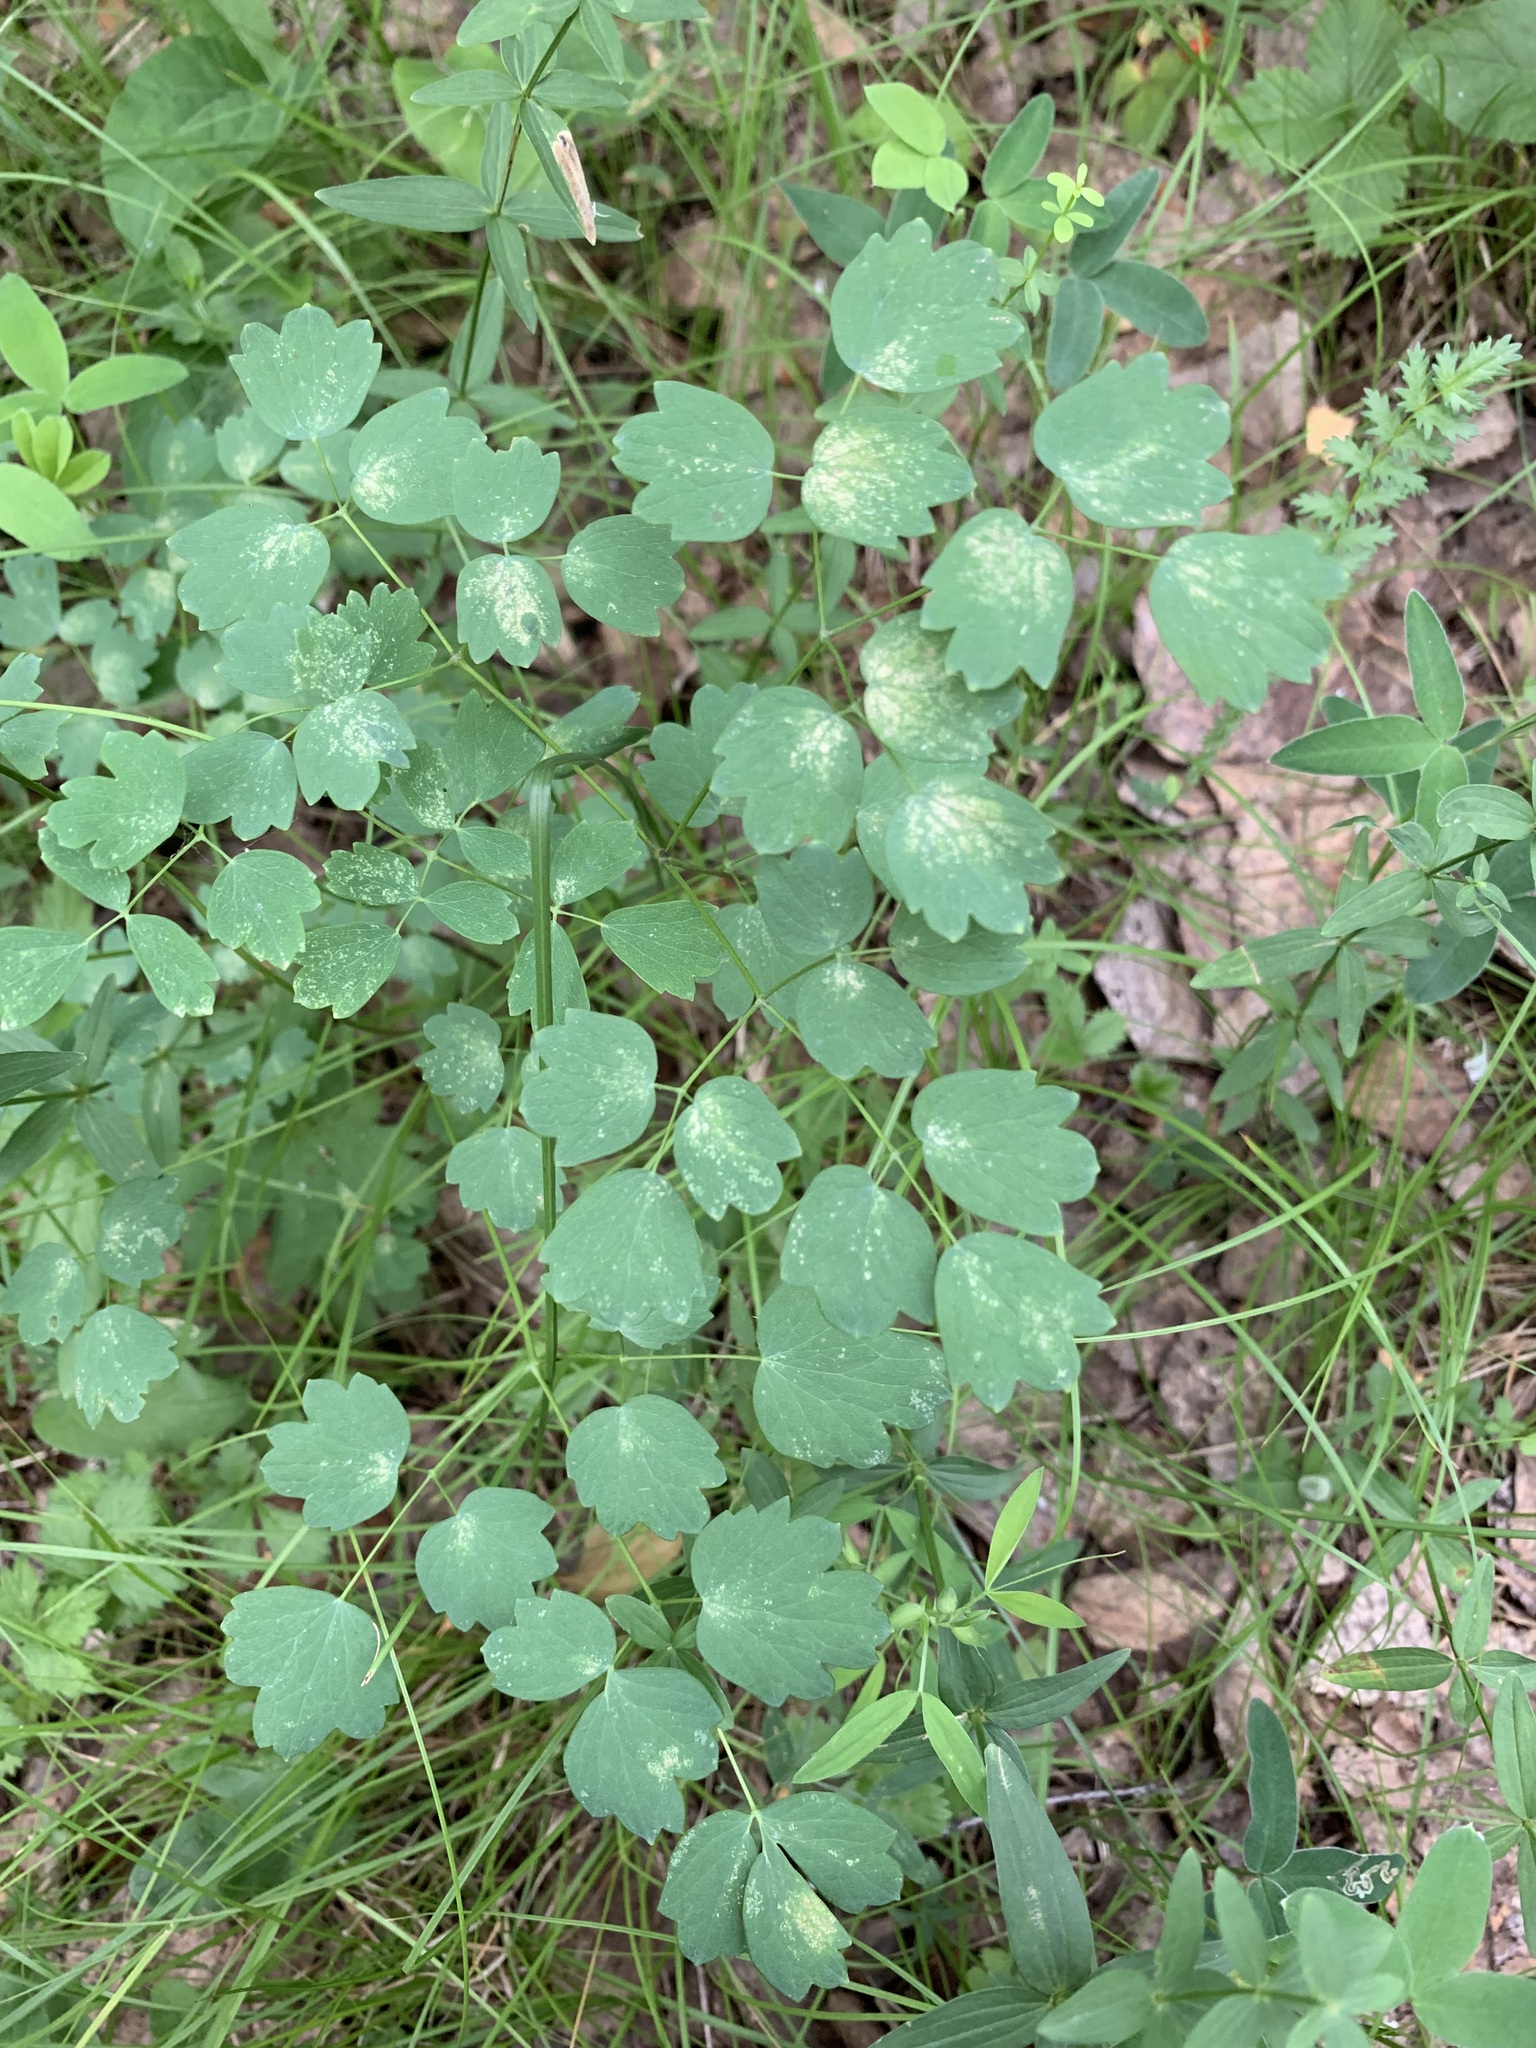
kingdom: Plantae
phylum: Tracheophyta
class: Magnoliopsida
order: Ranunculales
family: Ranunculaceae
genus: Thalictrum
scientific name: Thalictrum minus
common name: Lesser meadow-rue
